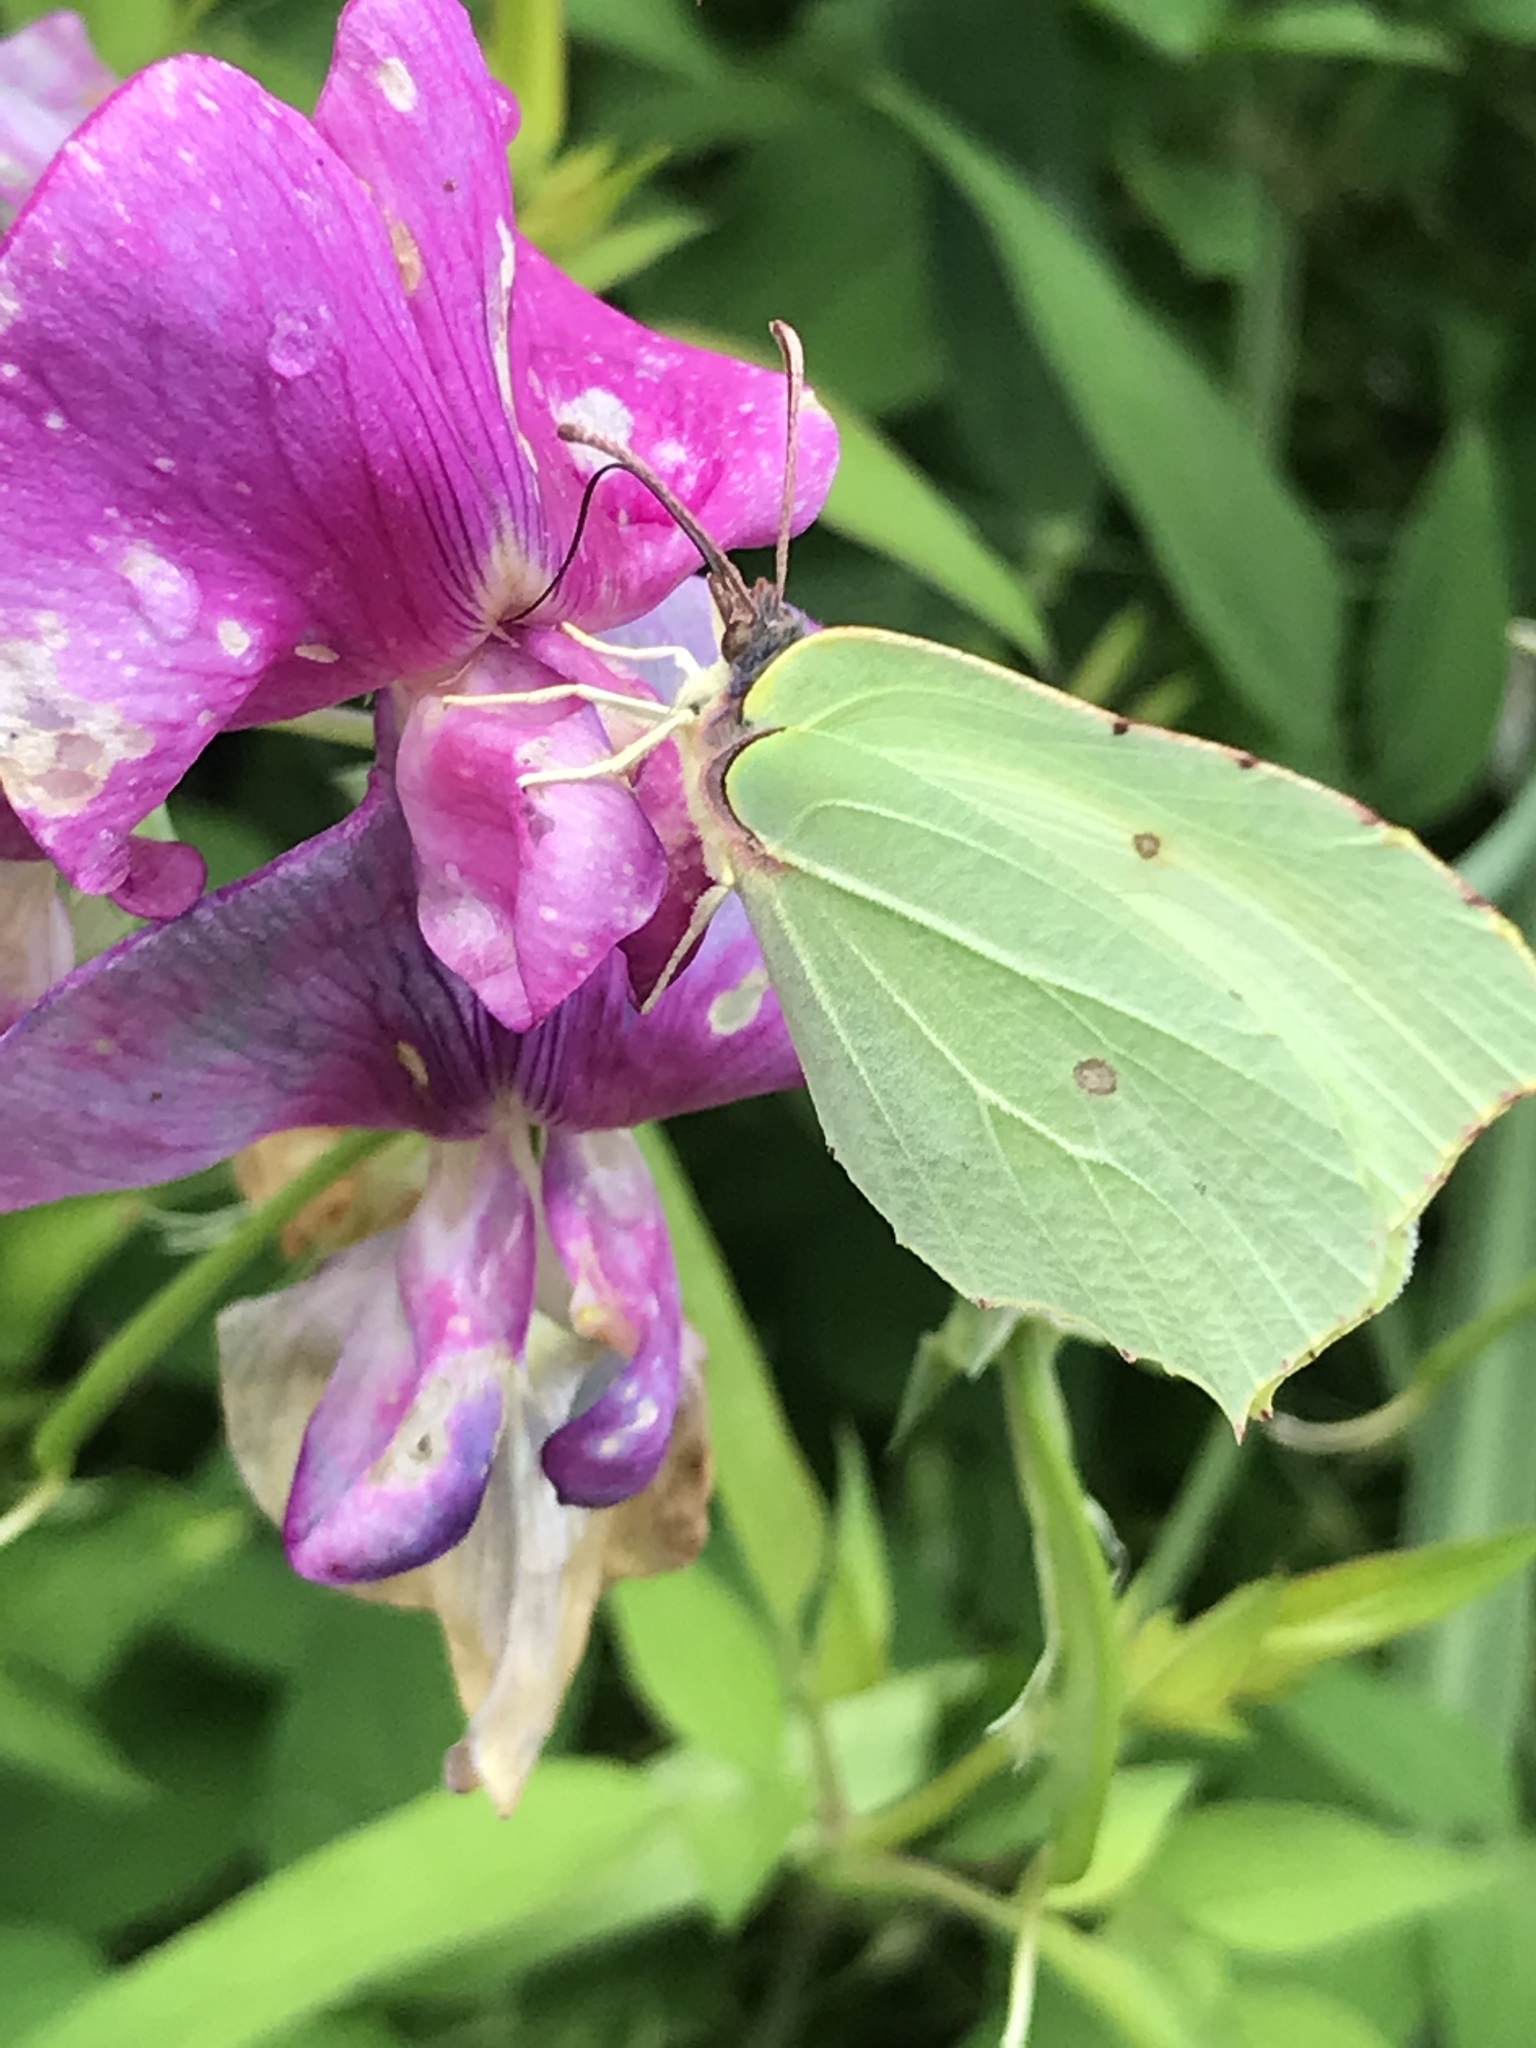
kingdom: Animalia
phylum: Arthropoda
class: Insecta
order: Lepidoptera
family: Pieridae
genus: Gonepteryx
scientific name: Gonepteryx rhamni
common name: Brimstone
